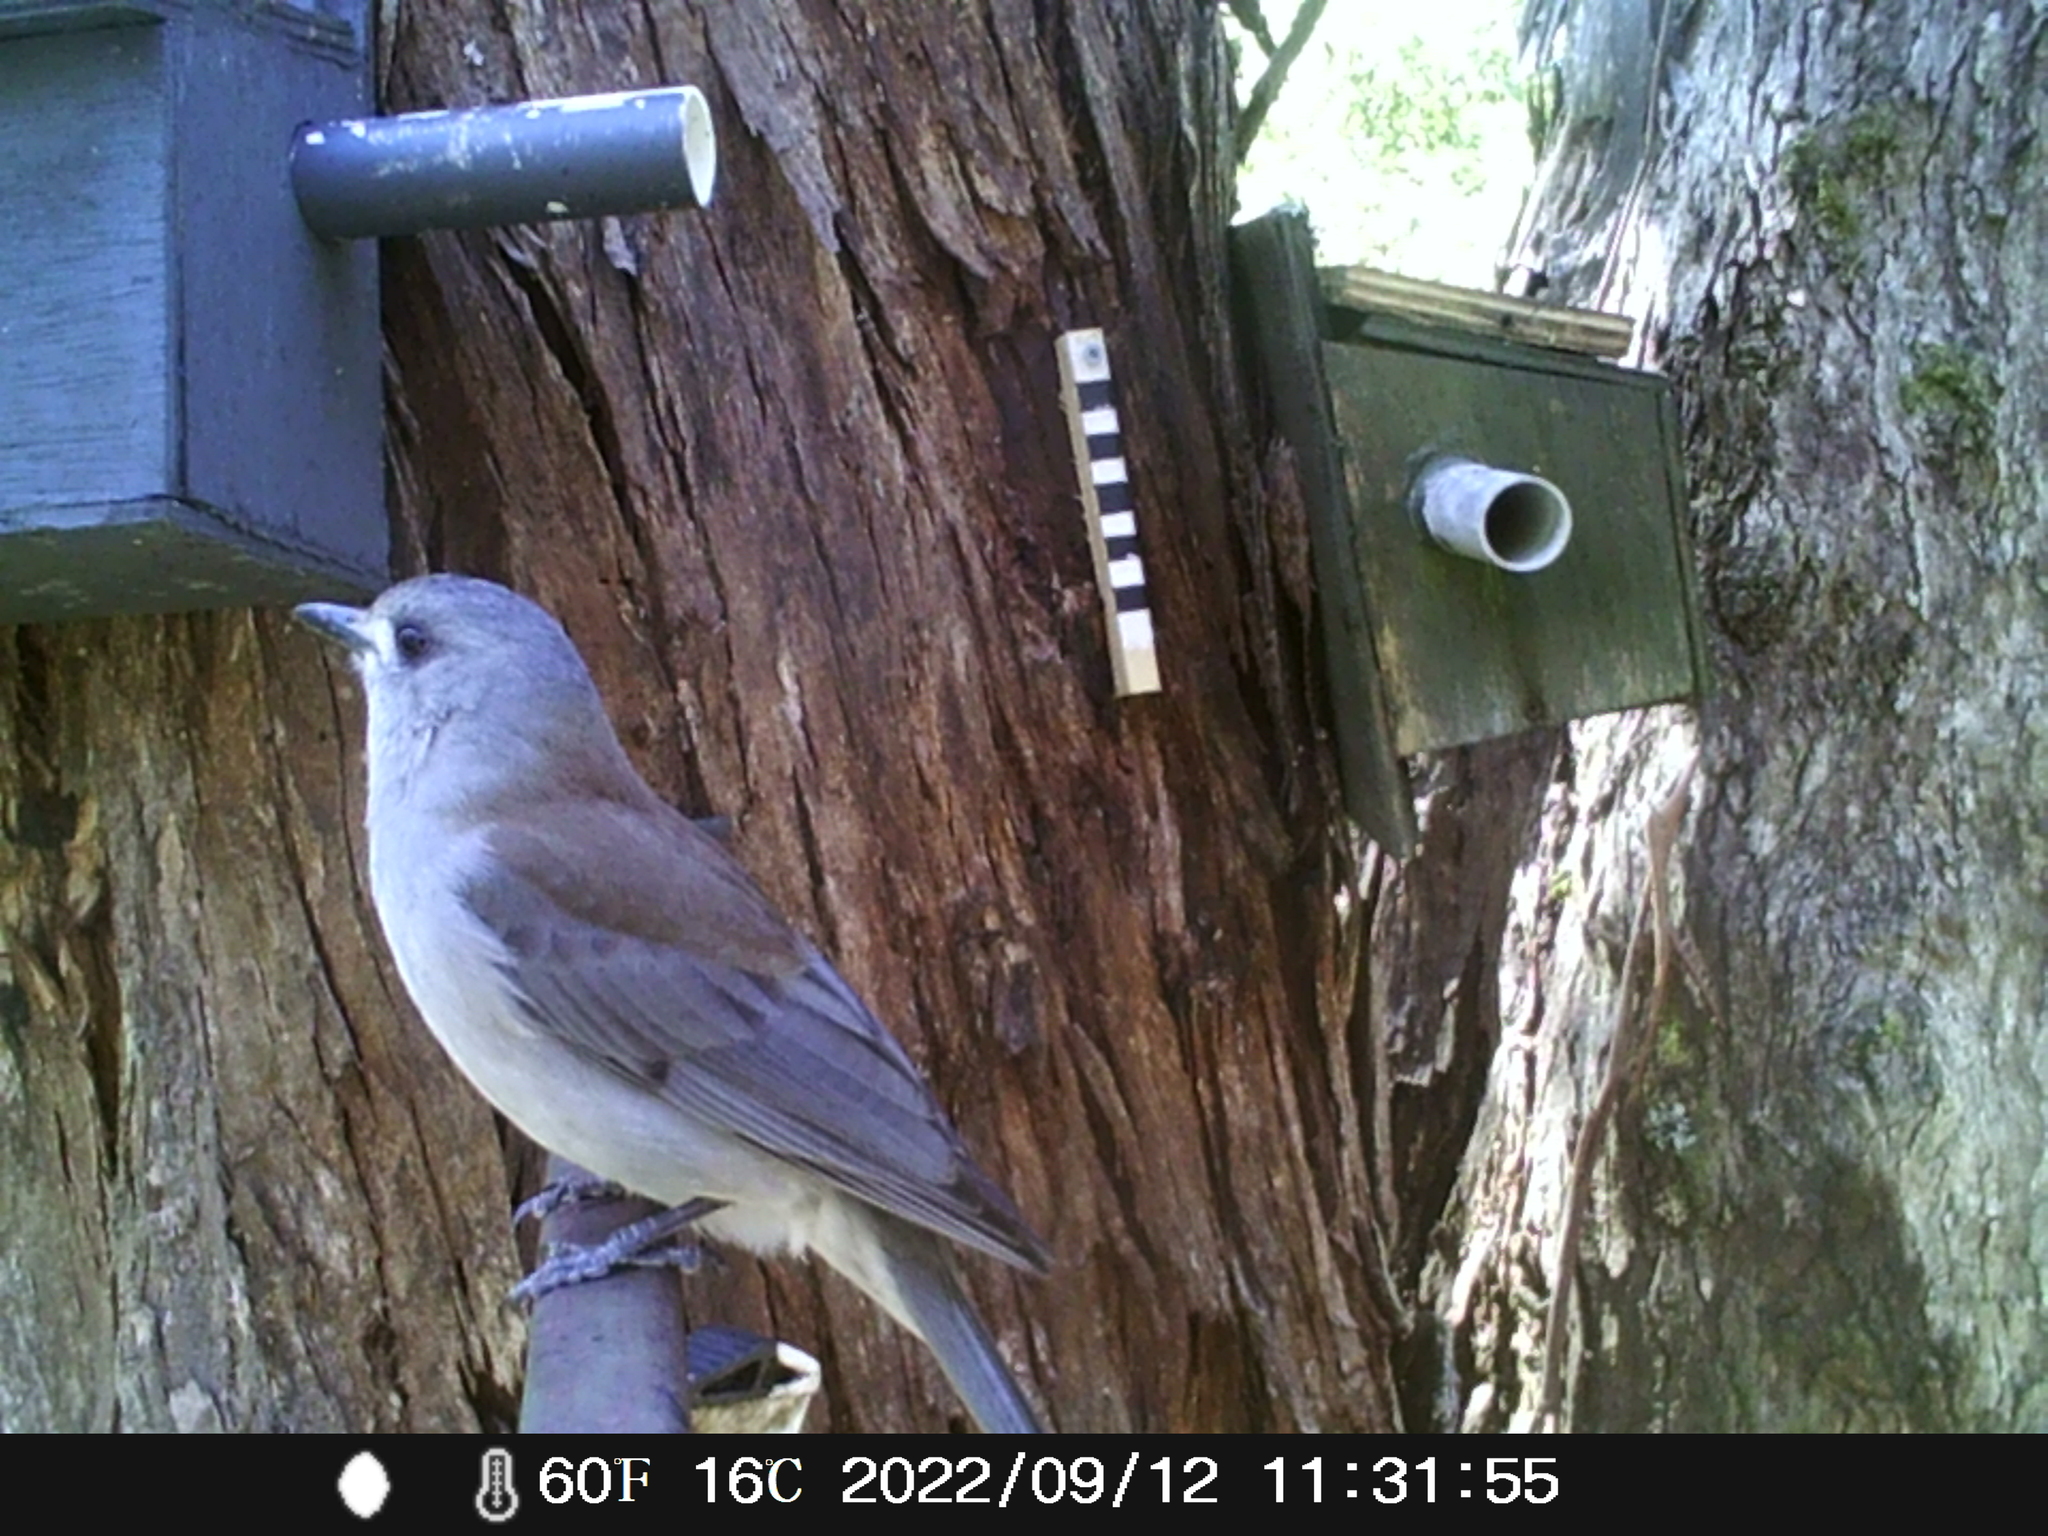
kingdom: Animalia
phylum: Chordata
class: Aves
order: Passeriformes
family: Pachycephalidae
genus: Colluricincla
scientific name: Colluricincla harmonica
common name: Grey shrikethrush
